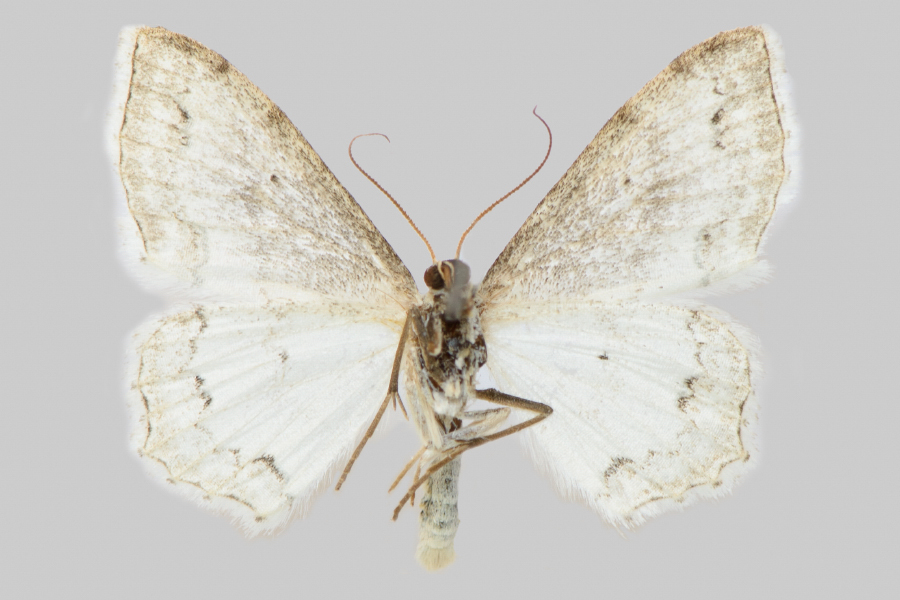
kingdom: Animalia
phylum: Arthropoda
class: Insecta
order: Lepidoptera
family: Geometridae
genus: Scopula
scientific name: Scopula ornata
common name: Lace border
